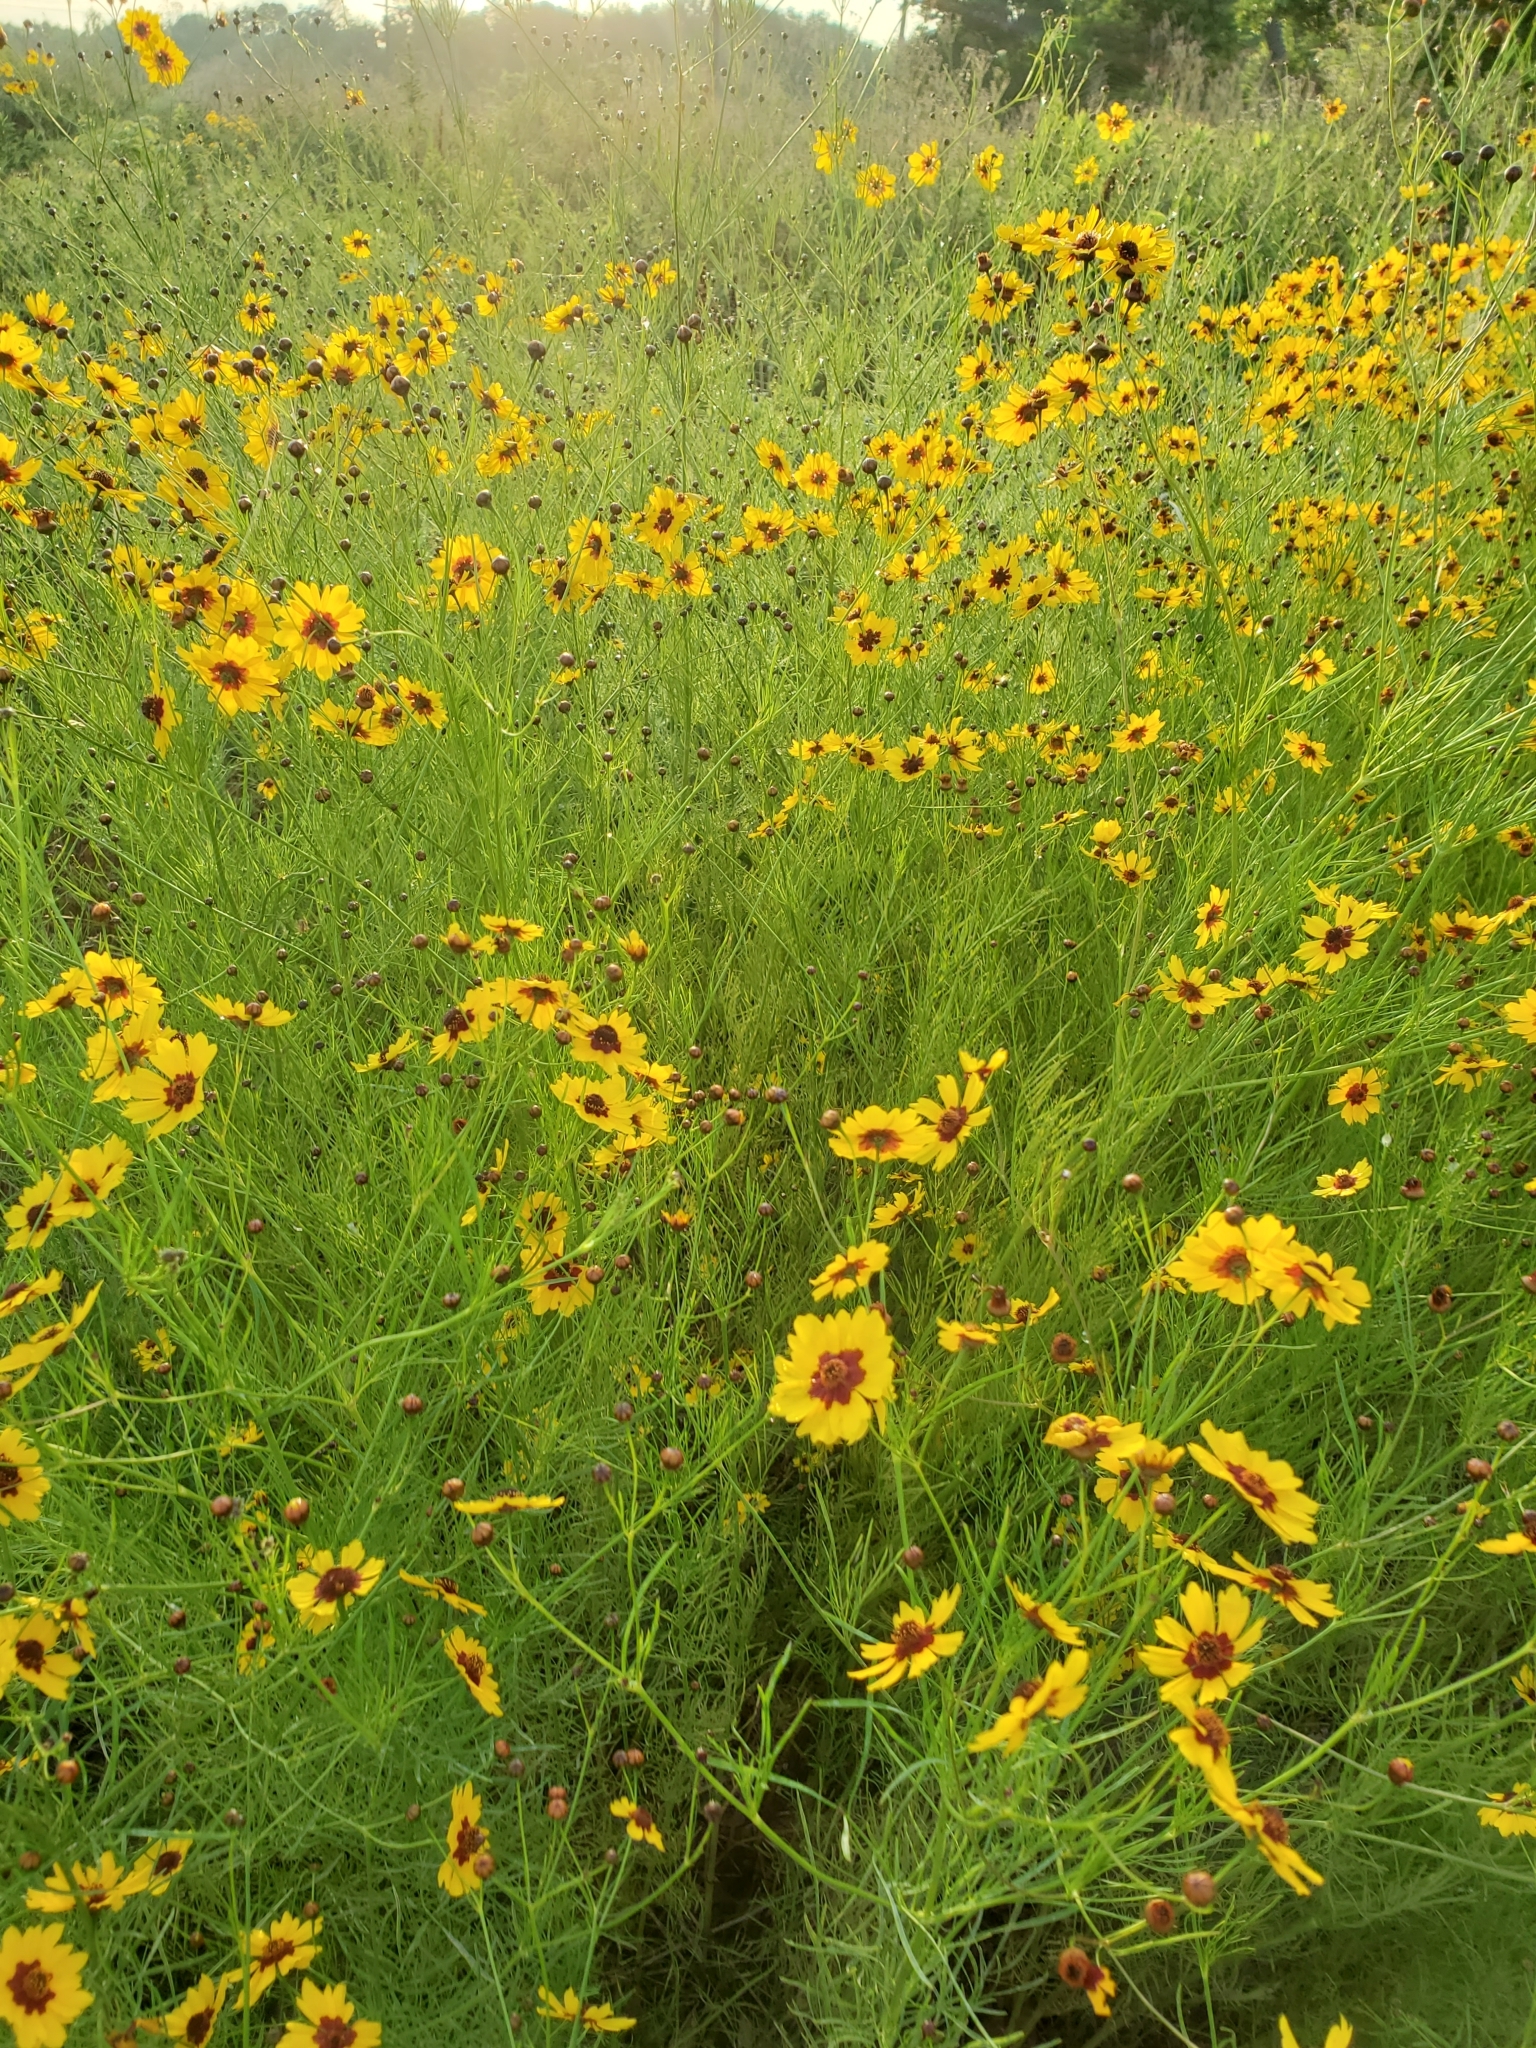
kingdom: Plantae
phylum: Tracheophyta
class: Magnoliopsida
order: Asterales
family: Asteraceae
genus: Coreopsis
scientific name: Coreopsis tinctoria
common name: Garden tickseed
